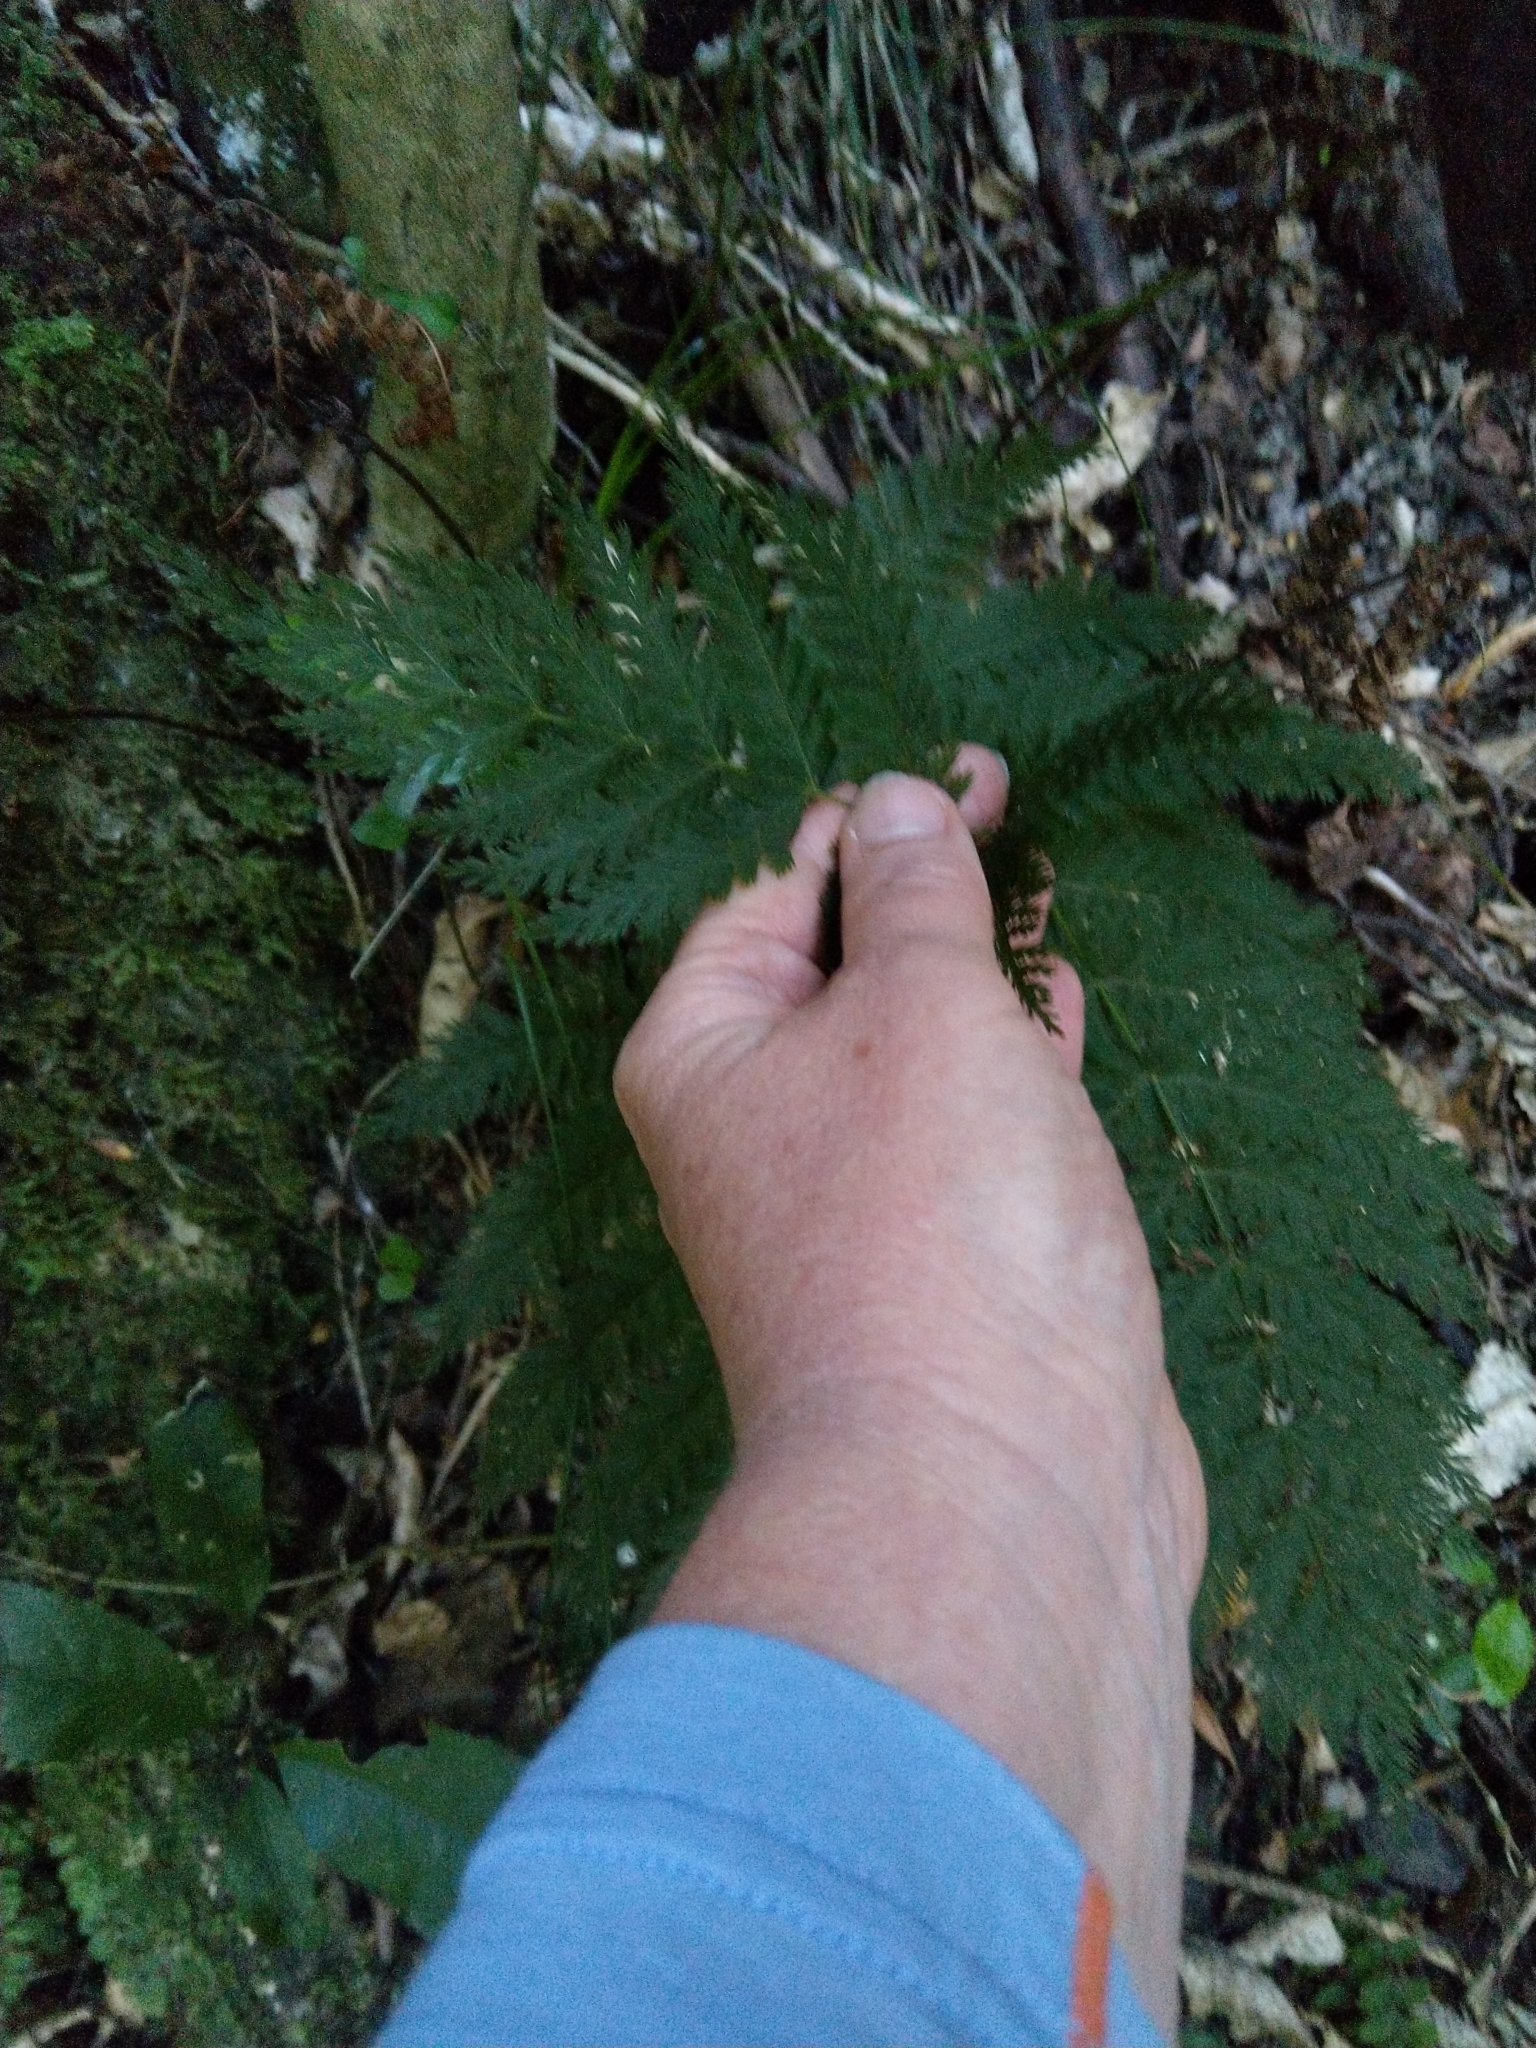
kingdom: Plantae
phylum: Tracheophyta
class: Polypodiopsida
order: Osmundales
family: Osmundaceae
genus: Leptopteris
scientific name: Leptopteris hymenophylloides
